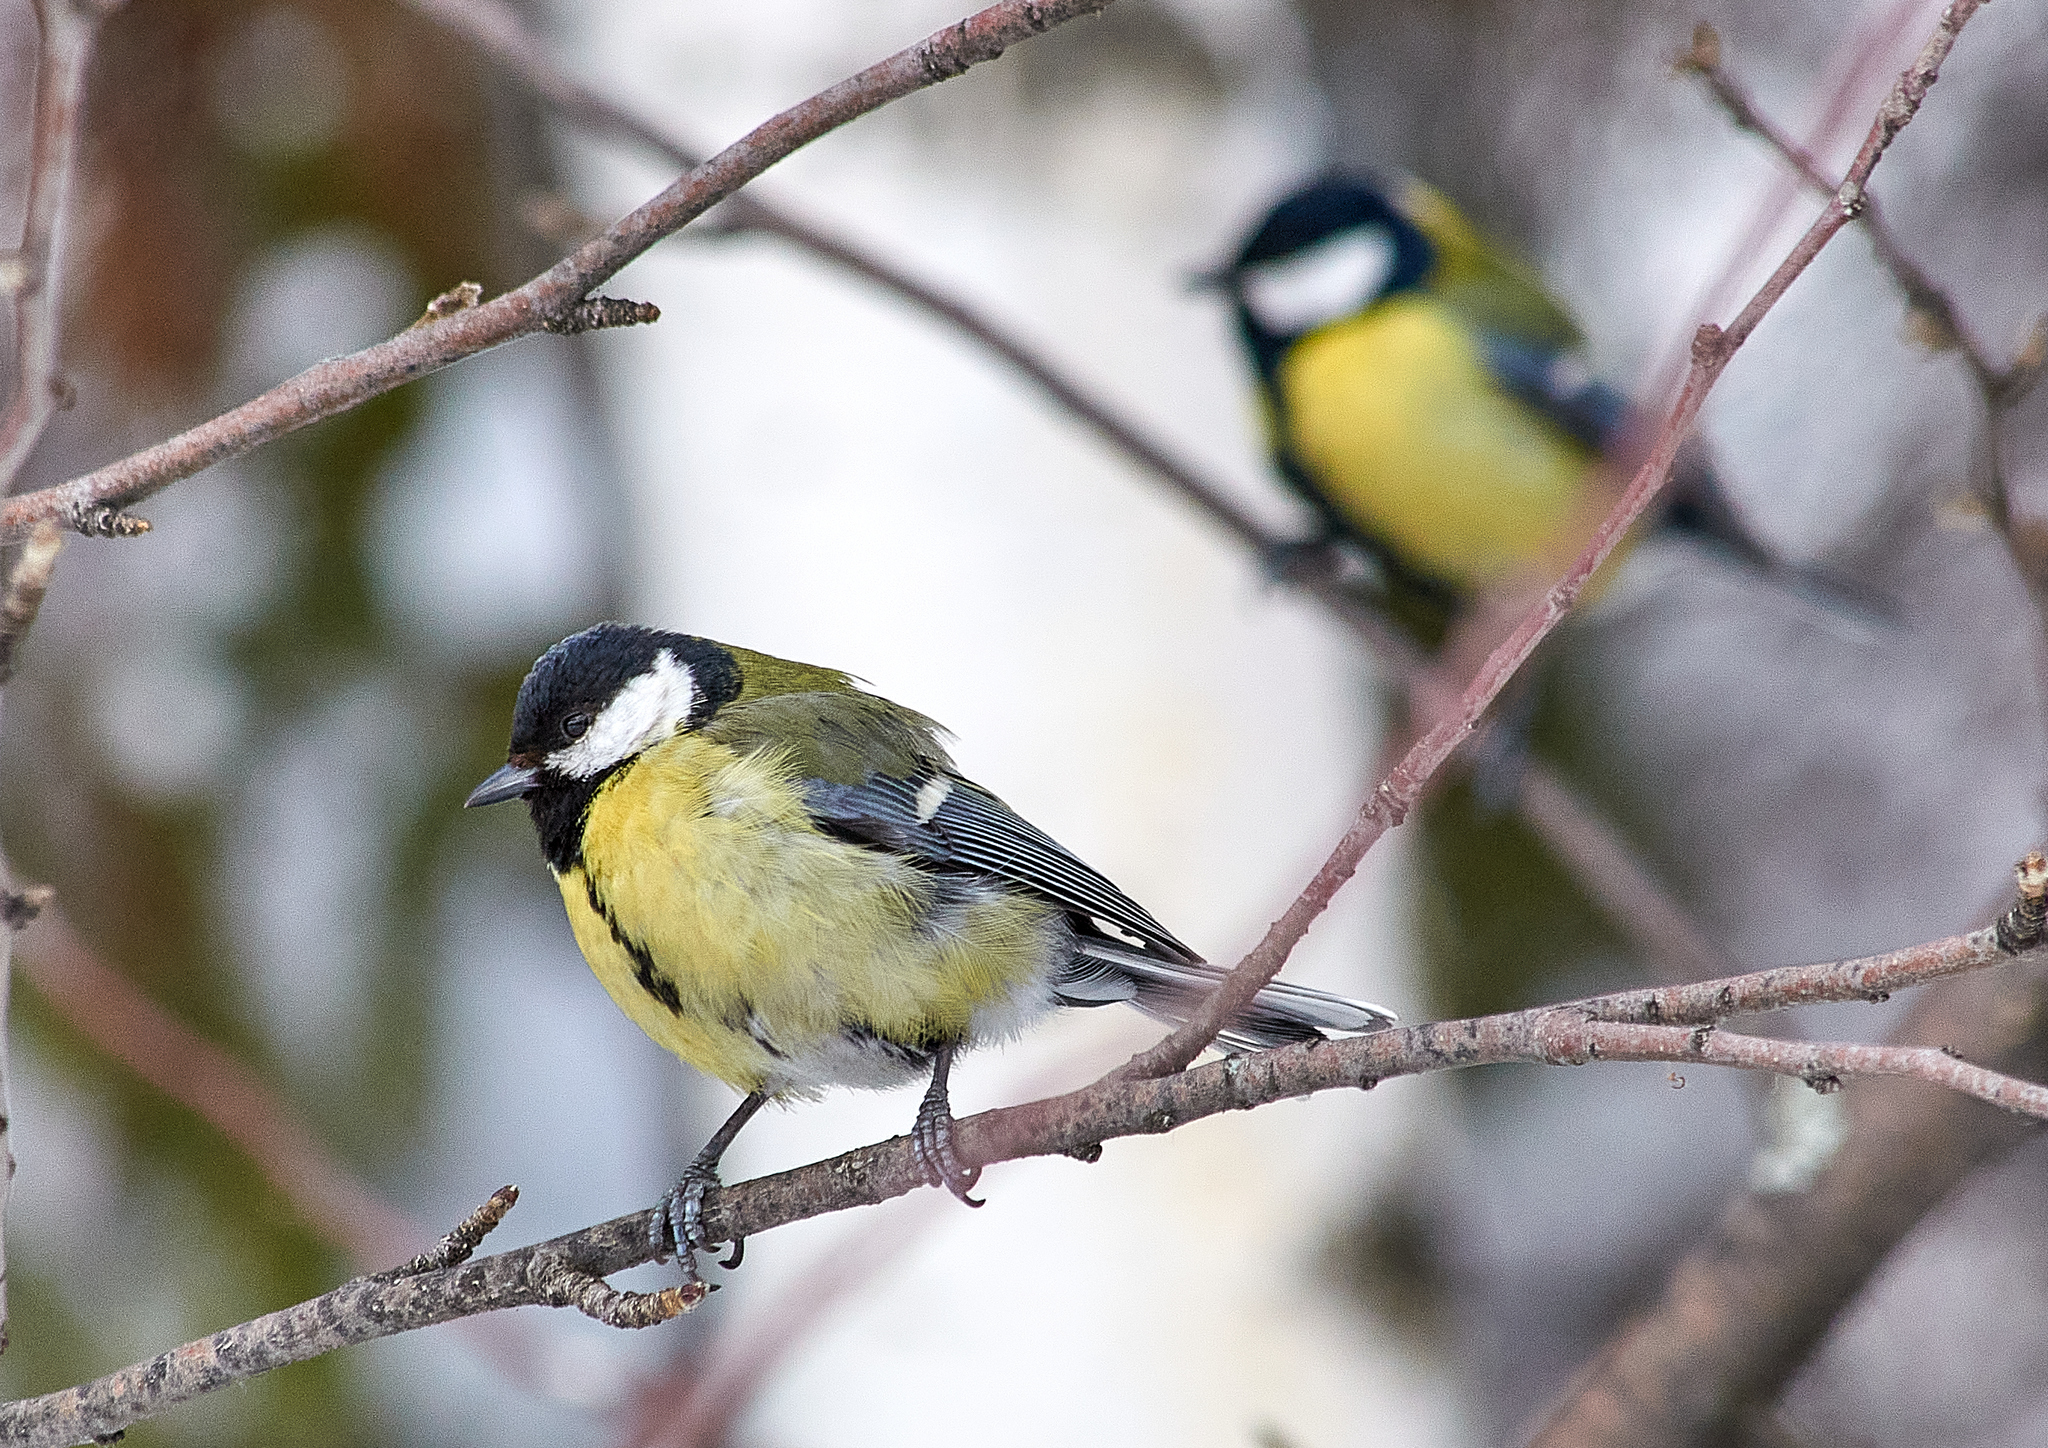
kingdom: Animalia
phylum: Chordata
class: Aves
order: Passeriformes
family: Paridae
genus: Parus
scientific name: Parus major
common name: Great tit
